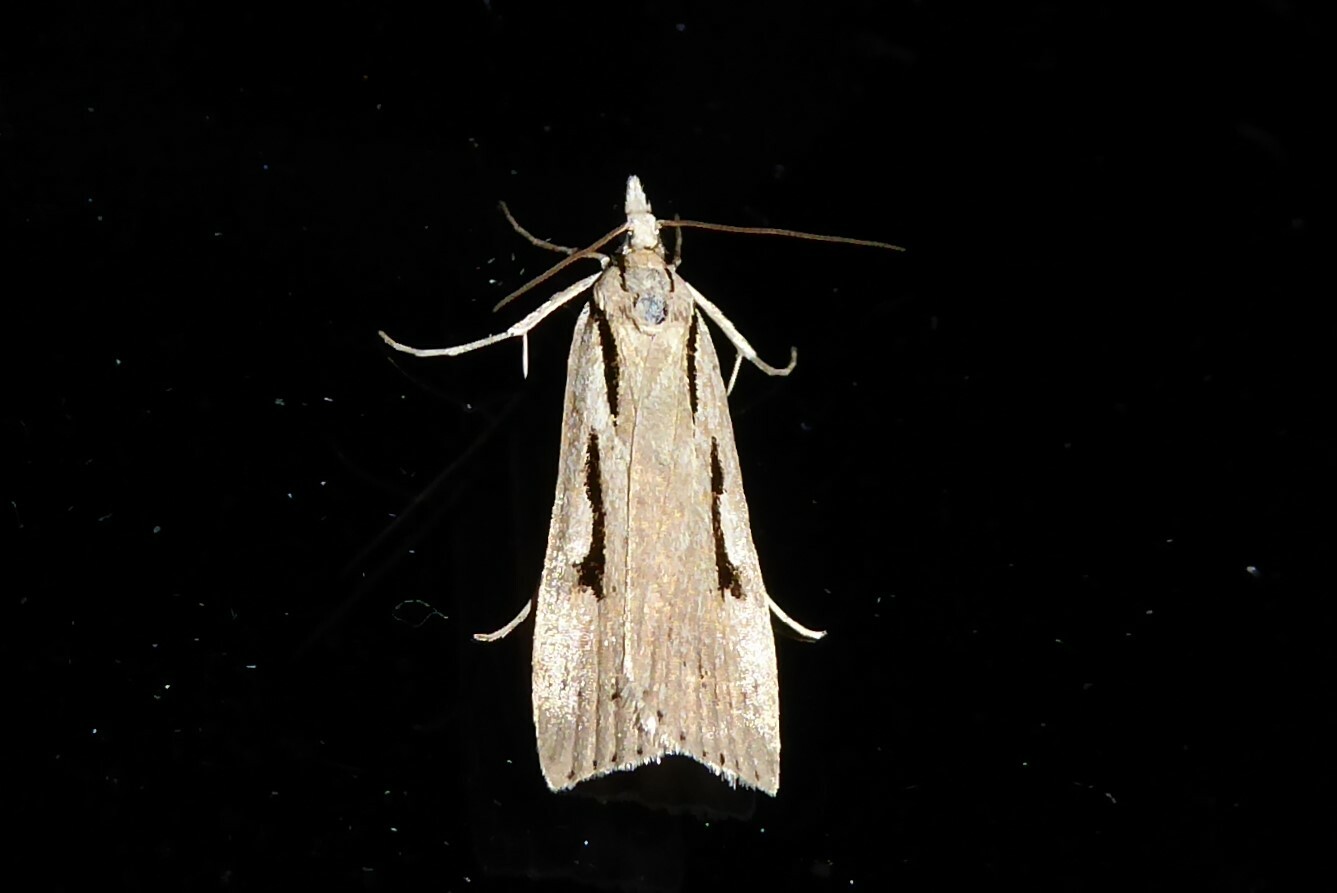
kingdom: Animalia
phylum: Arthropoda
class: Insecta
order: Lepidoptera
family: Crambidae
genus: Scoparia
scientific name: Scoparia rotuellus
